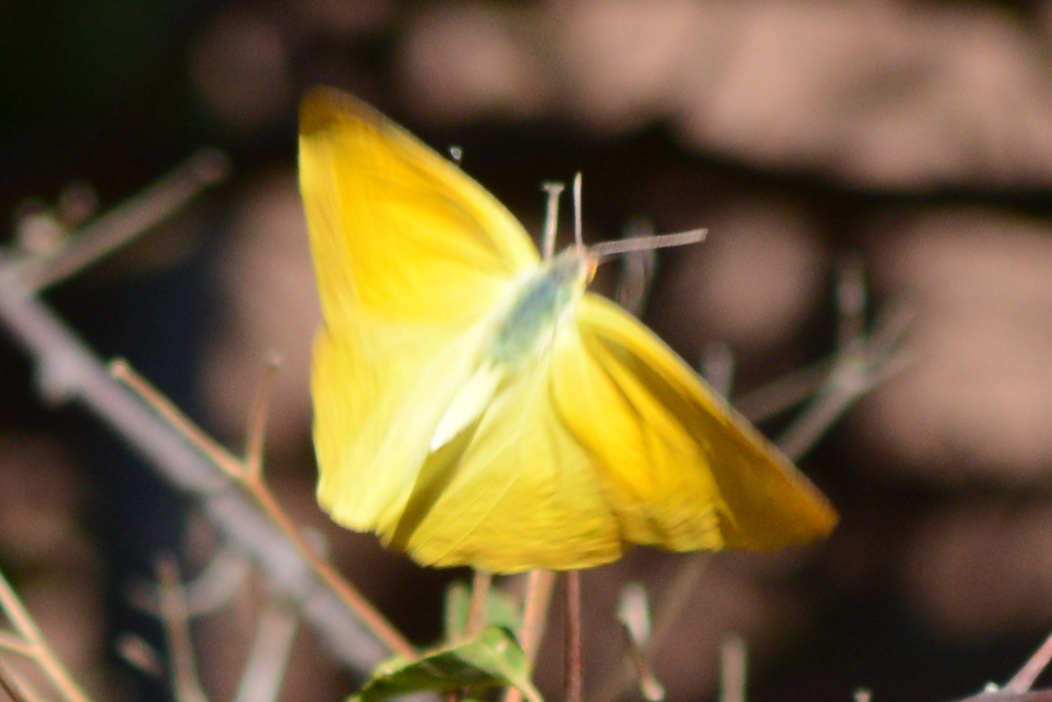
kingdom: Animalia
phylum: Arthropoda
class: Insecta
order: Lepidoptera
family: Pieridae
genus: Phoebis
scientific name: Phoebis agarithe
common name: Large orange sulphur
